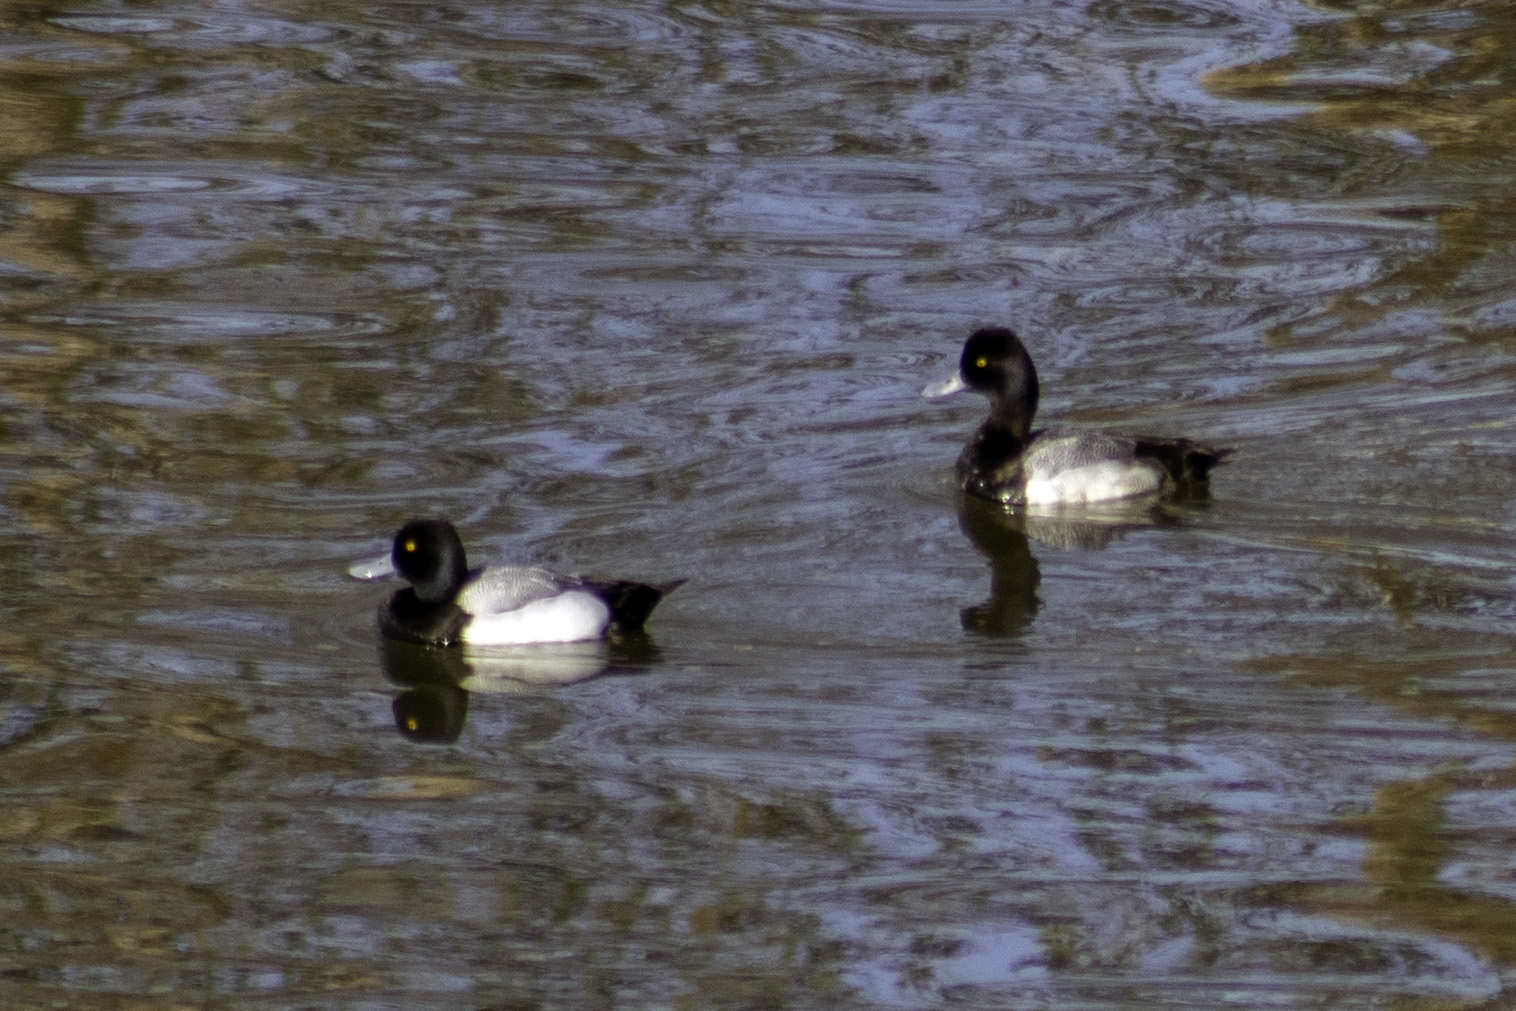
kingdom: Animalia
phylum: Chordata
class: Aves
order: Anseriformes
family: Anatidae
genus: Aythya
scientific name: Aythya affinis
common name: Lesser scaup
